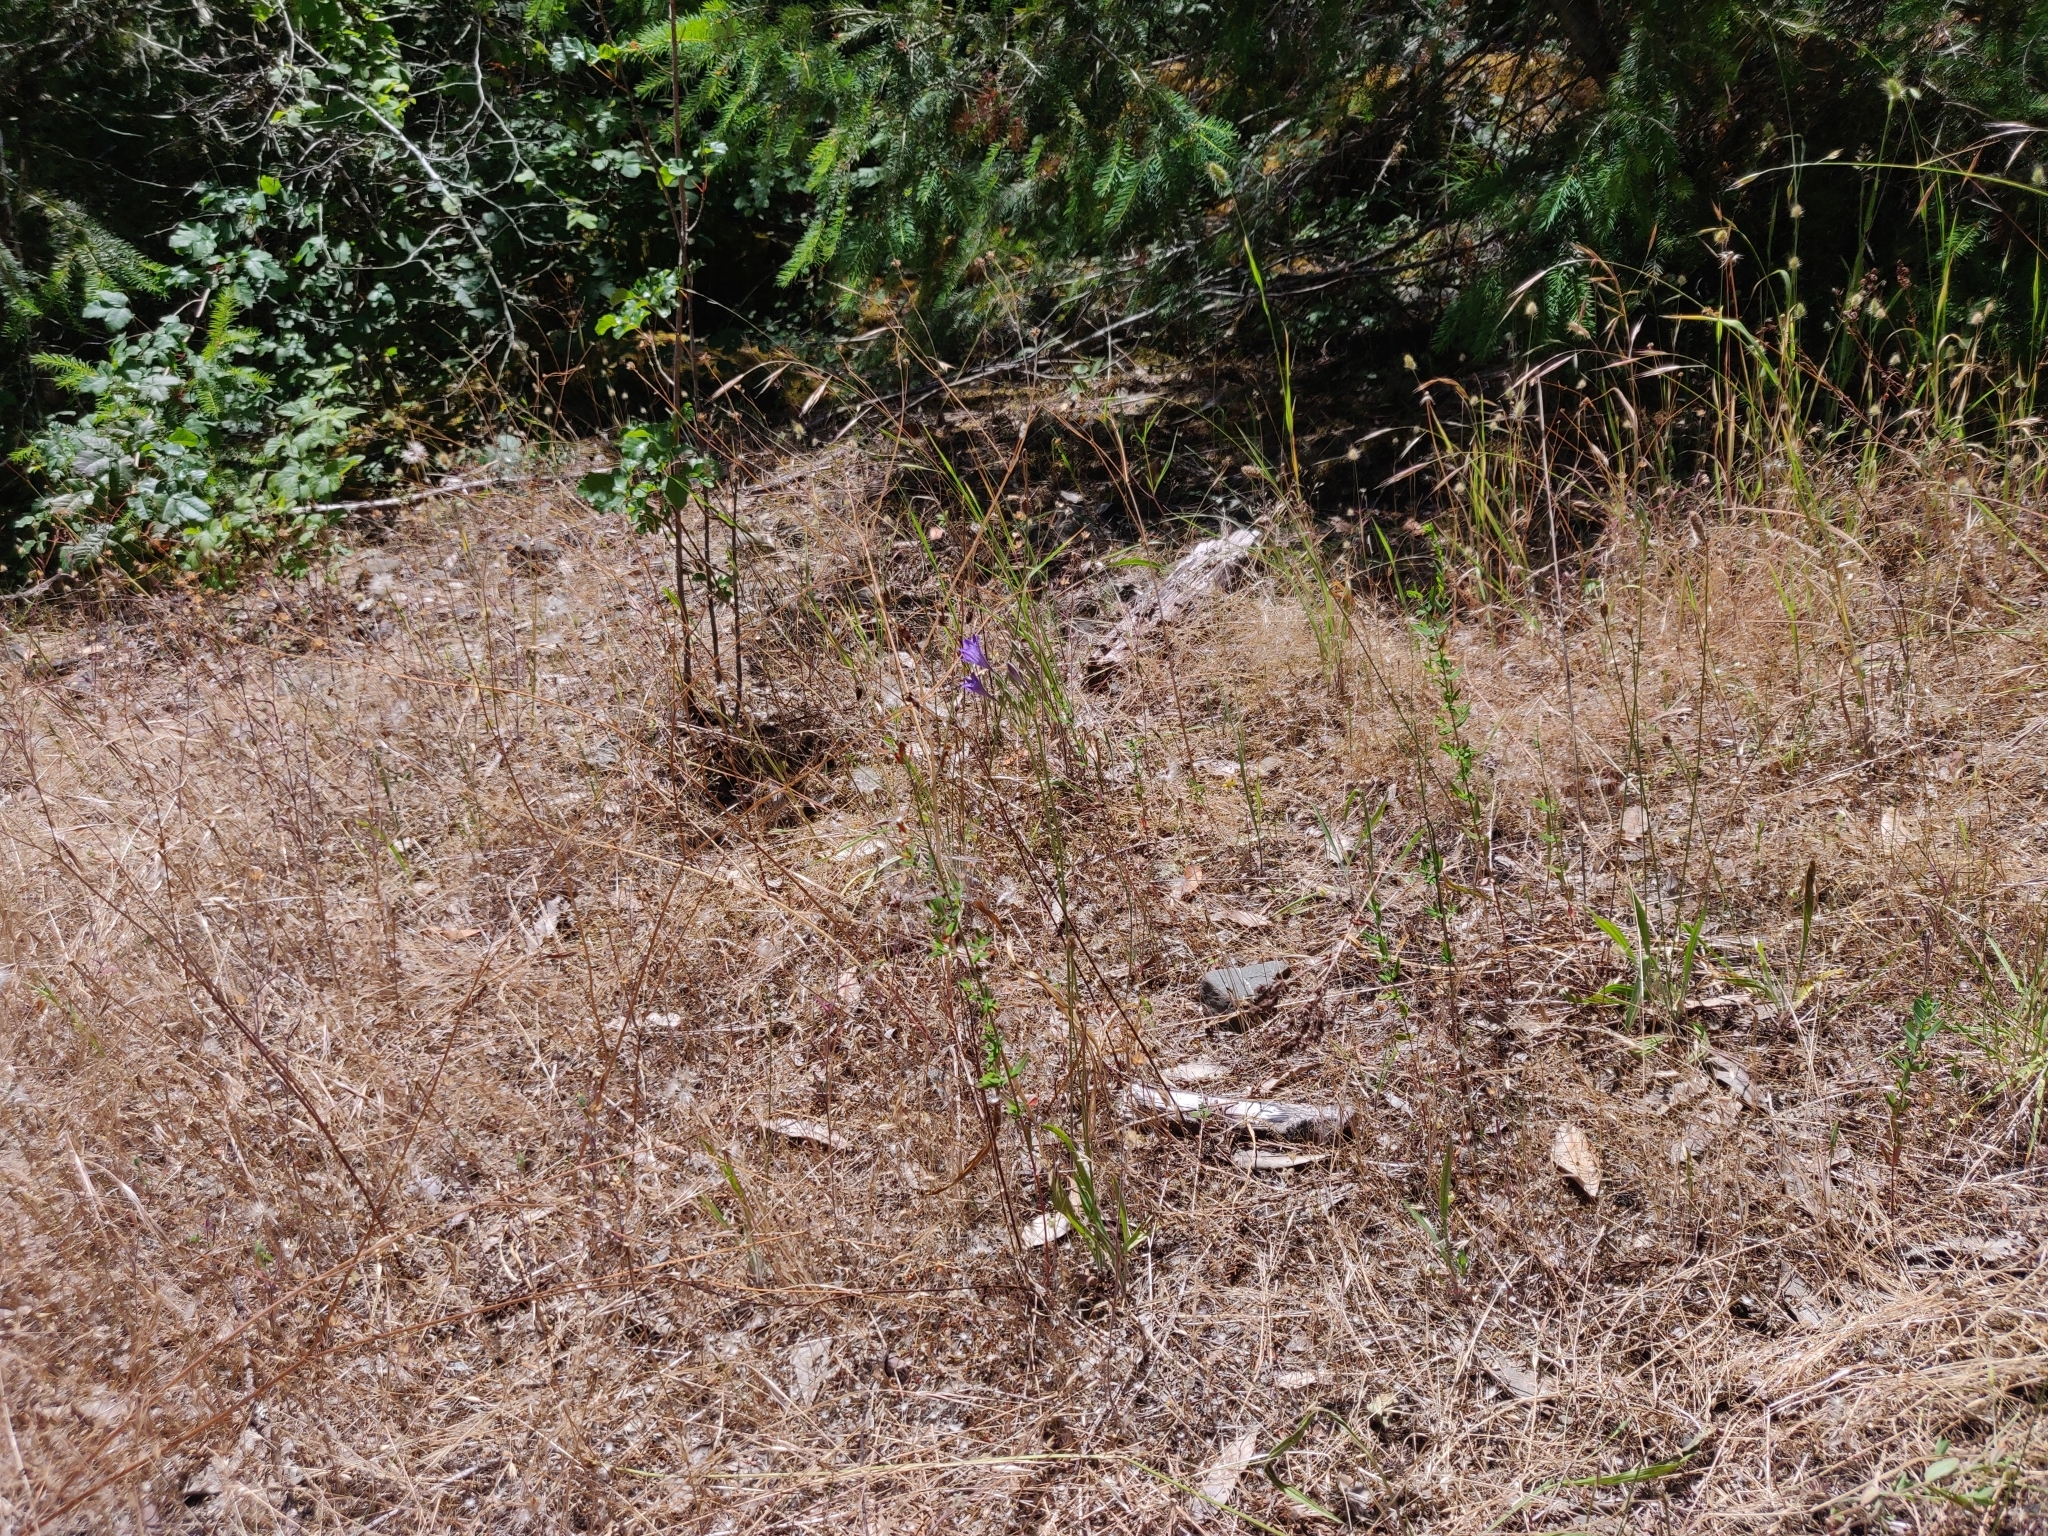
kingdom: Plantae
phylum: Tracheophyta
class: Liliopsida
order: Asparagales
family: Asparagaceae
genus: Triteleia
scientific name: Triteleia laxa
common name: Triplet-lily
